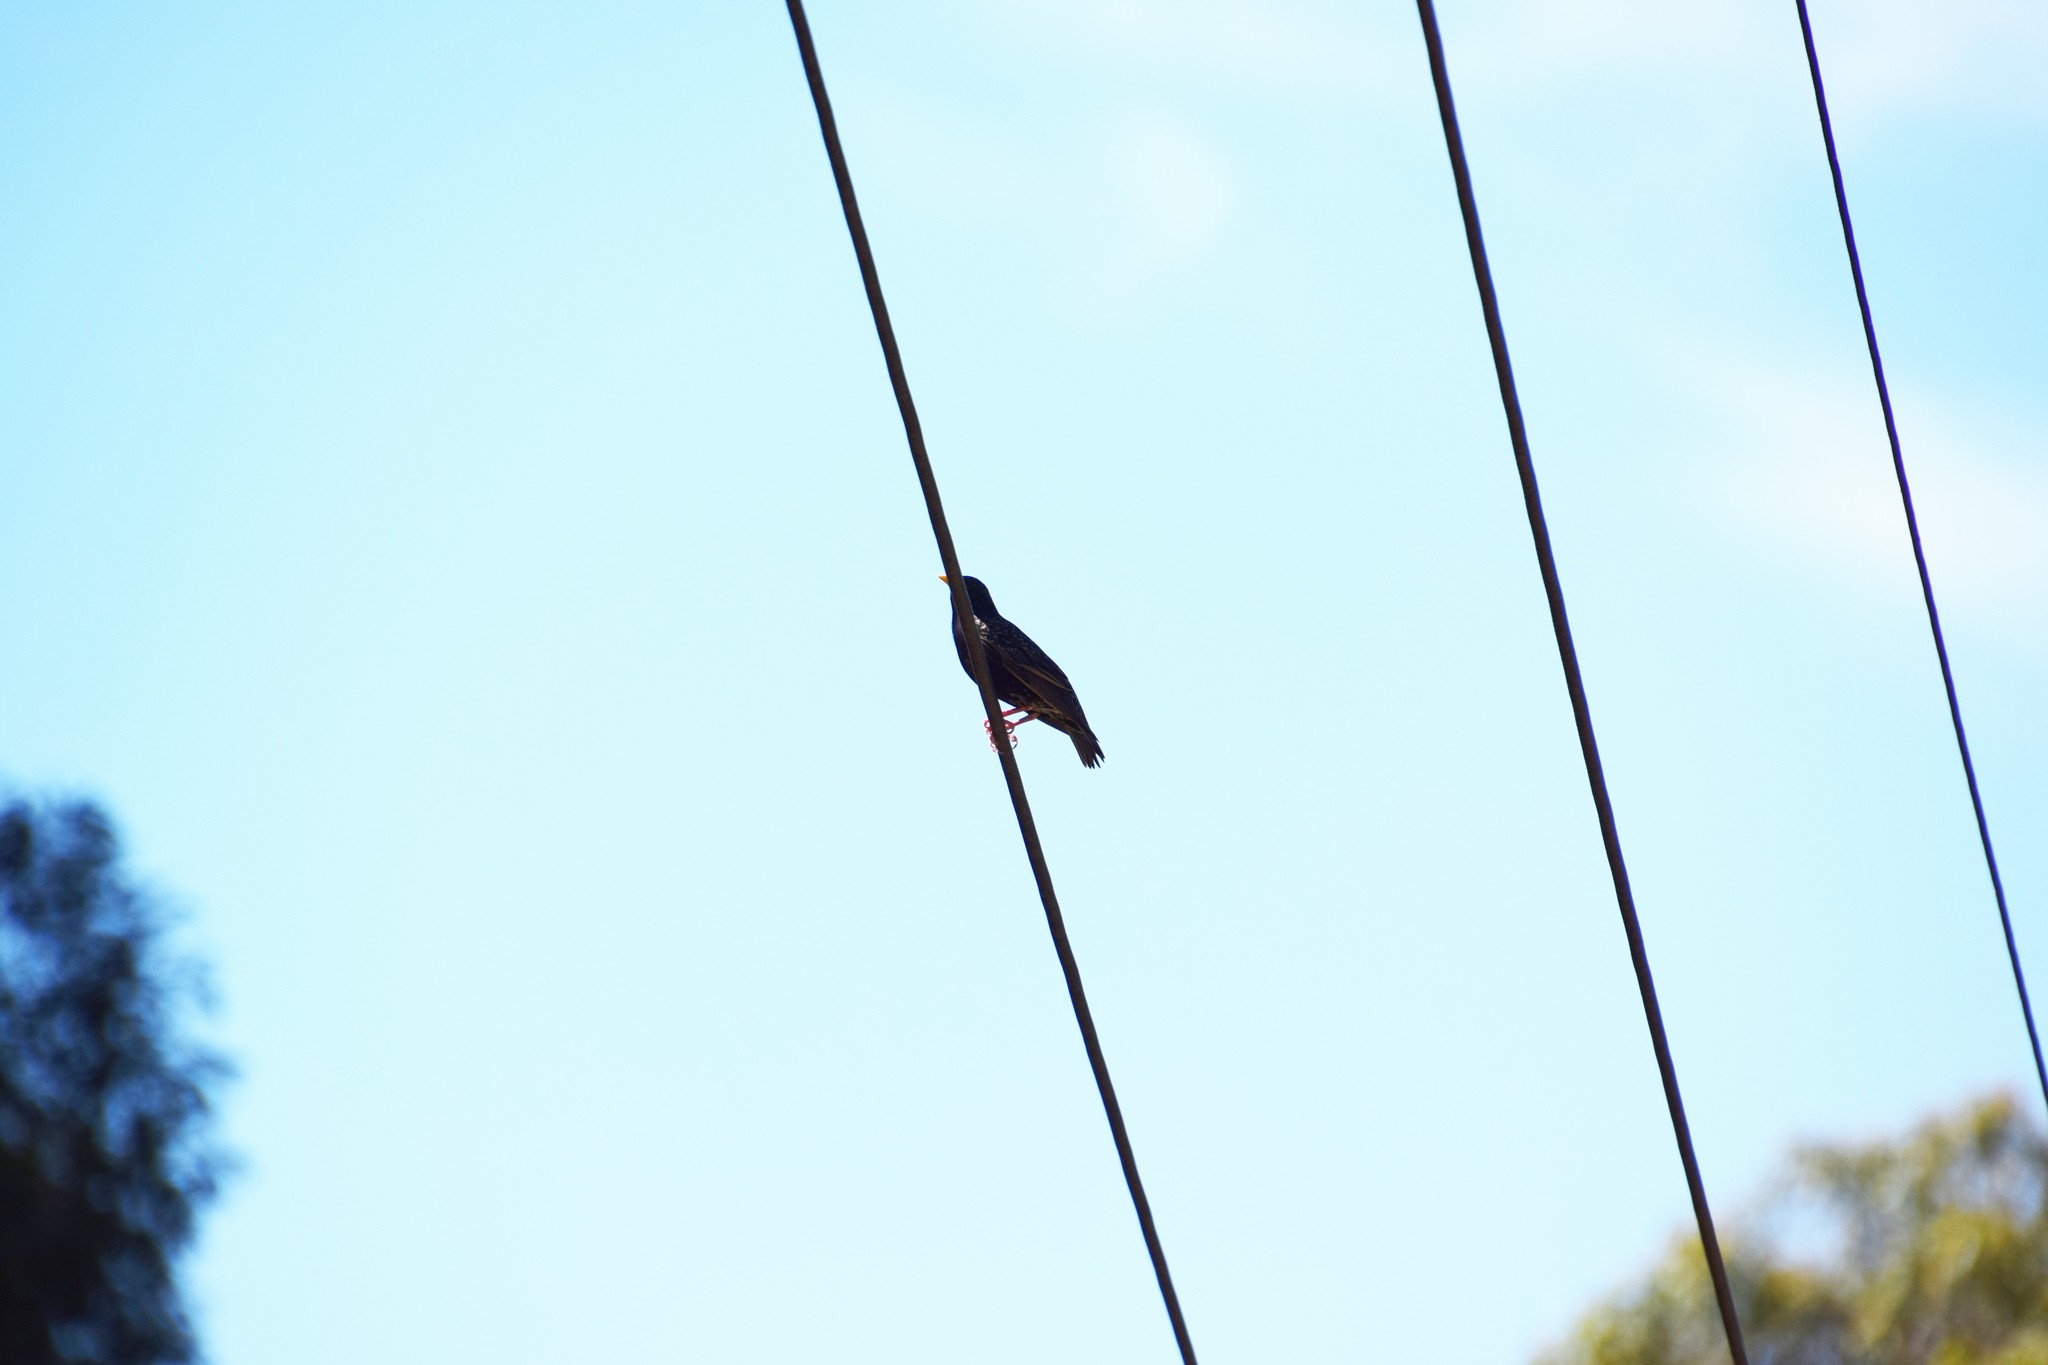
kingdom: Animalia
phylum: Chordata
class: Aves
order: Passeriformes
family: Sturnidae
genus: Sturnus
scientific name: Sturnus vulgaris
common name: Common starling
